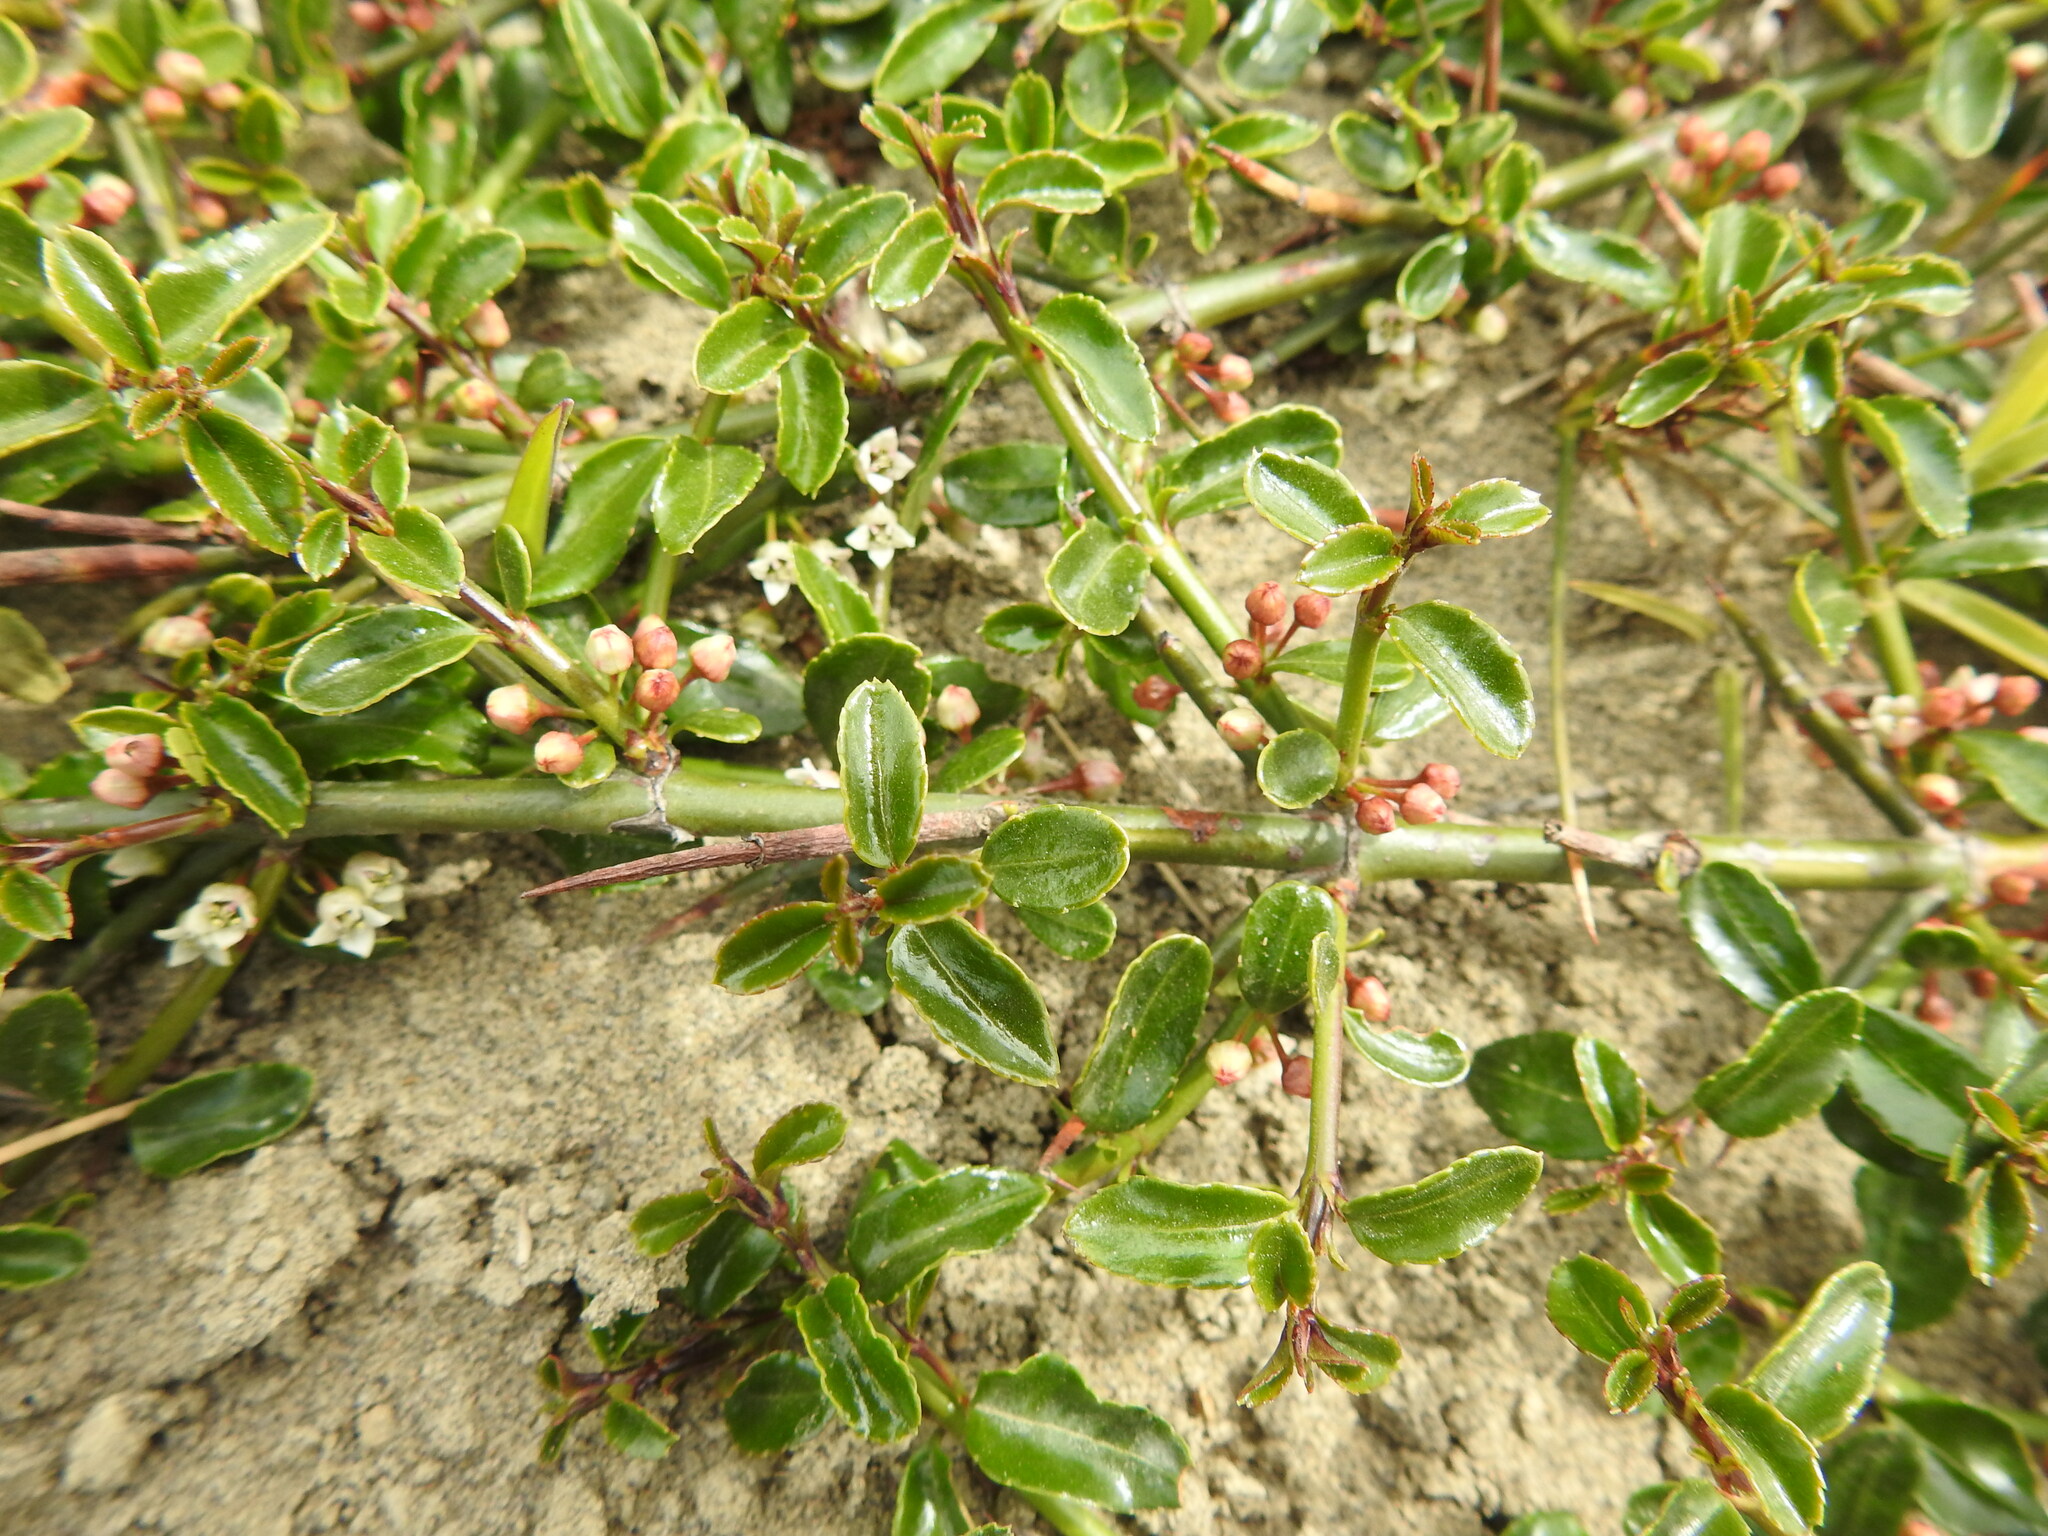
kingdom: Plantae
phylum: Tracheophyta
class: Magnoliopsida
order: Rosales
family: Rhamnaceae
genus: Discaria
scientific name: Discaria chacaye
